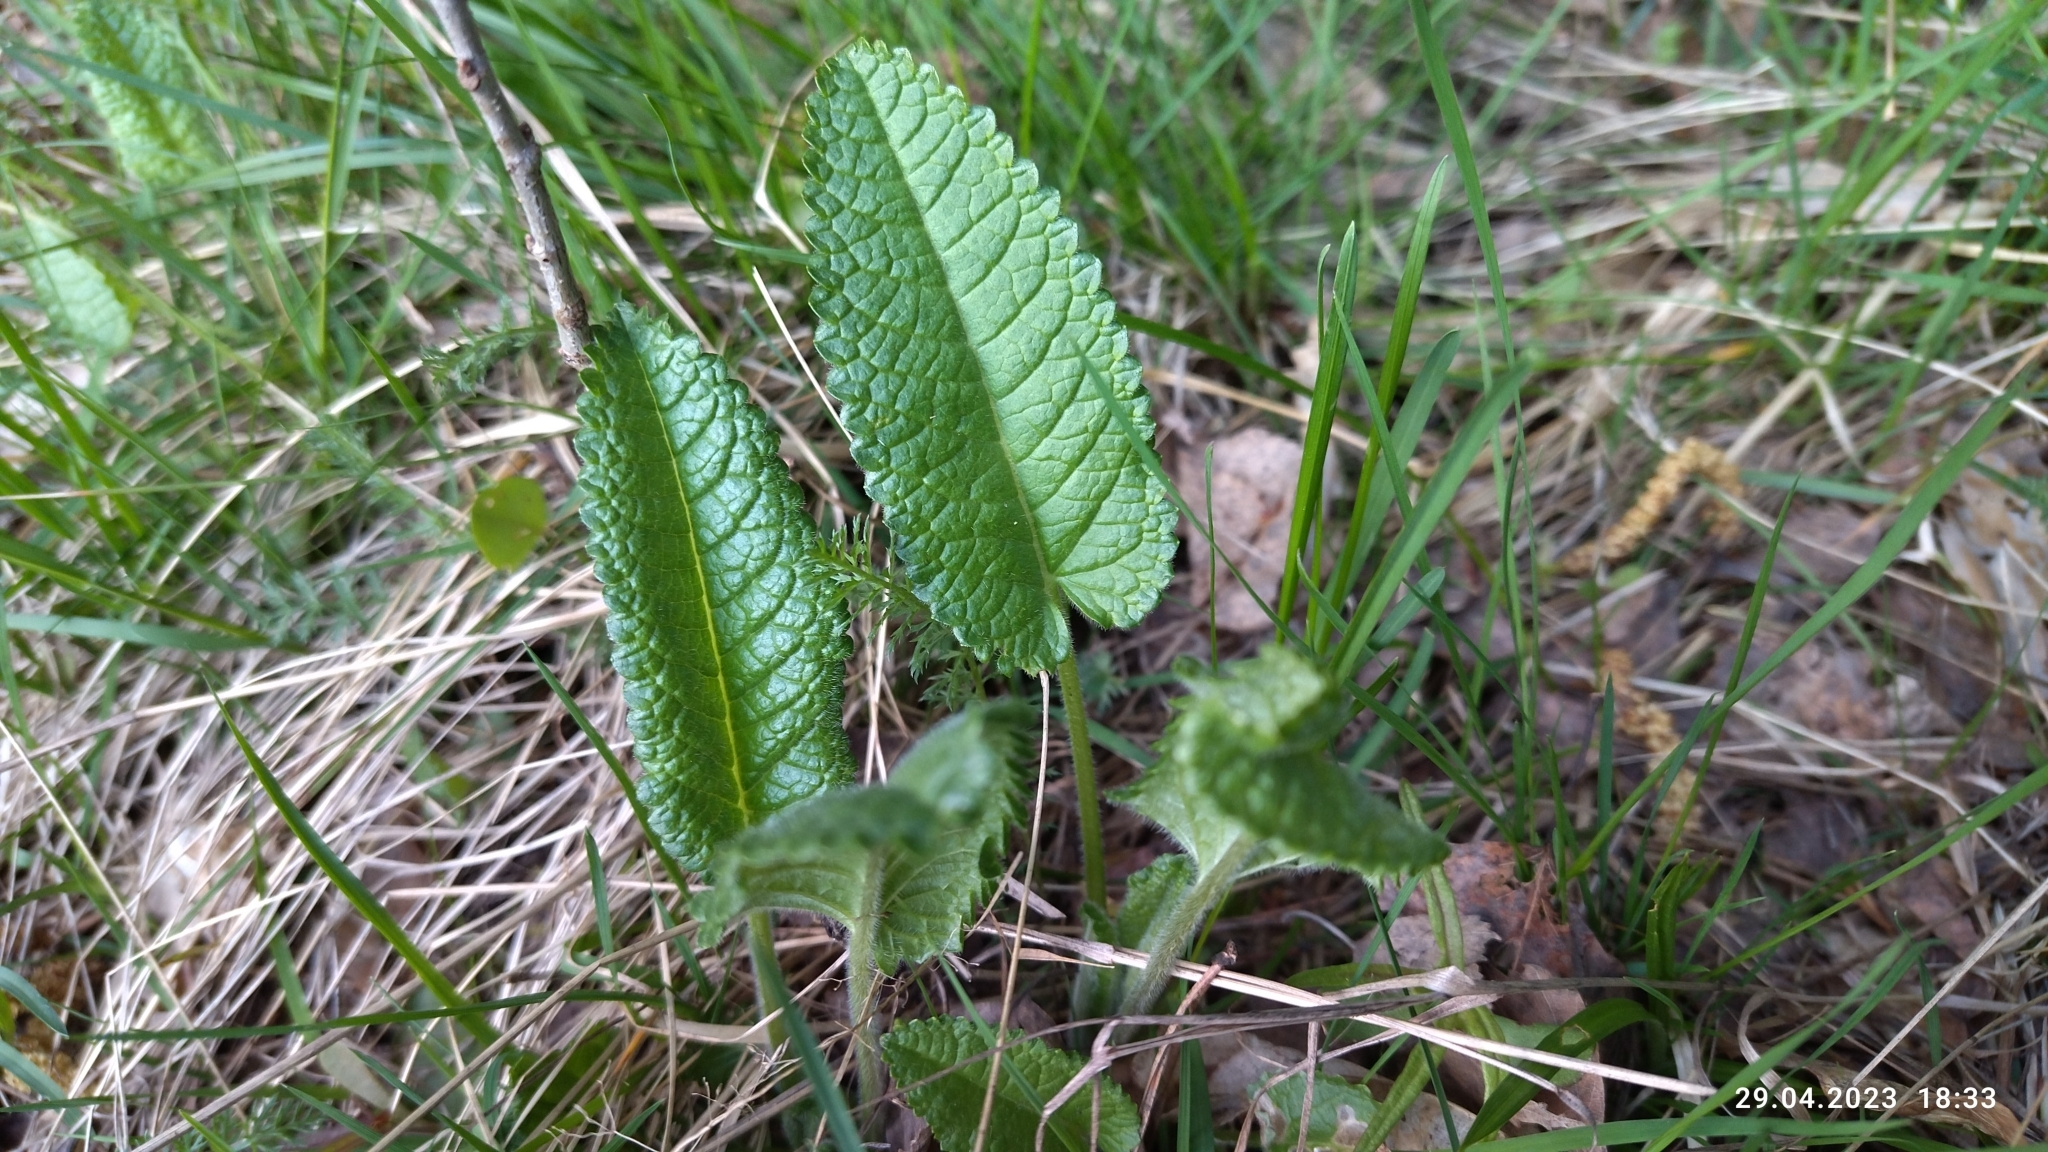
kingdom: Plantae
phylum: Tracheophyta
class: Magnoliopsida
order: Lamiales
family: Lamiaceae
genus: Betonica
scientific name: Betonica officinalis
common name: Bishop's-wort
